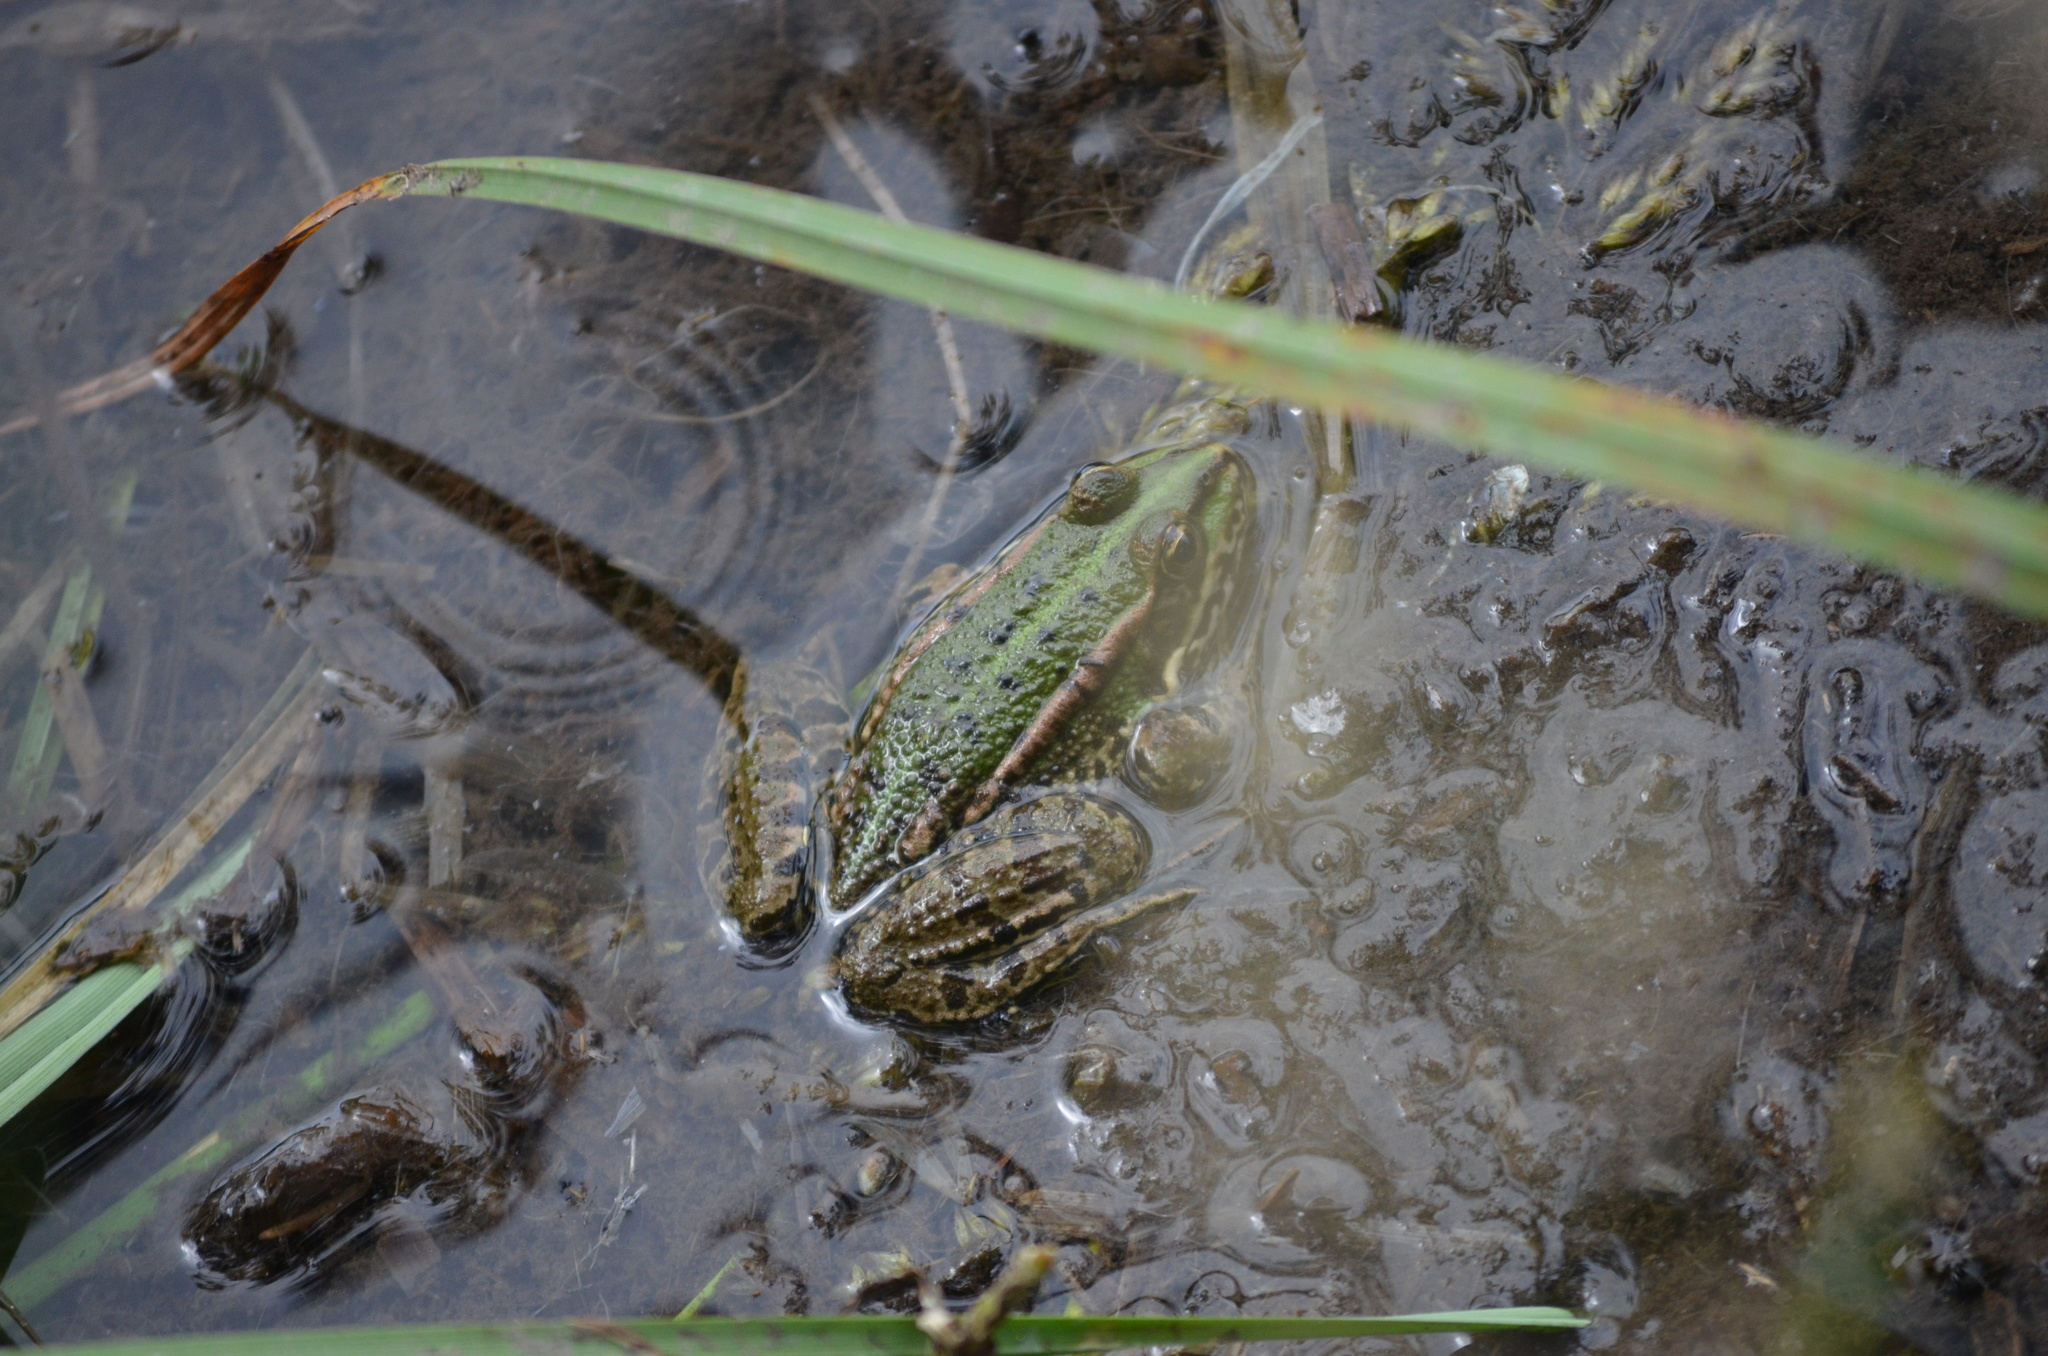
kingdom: Animalia
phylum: Chordata
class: Amphibia
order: Anura
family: Ranidae
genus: Pelophylax
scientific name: Pelophylax perezi
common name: Perez's frog
